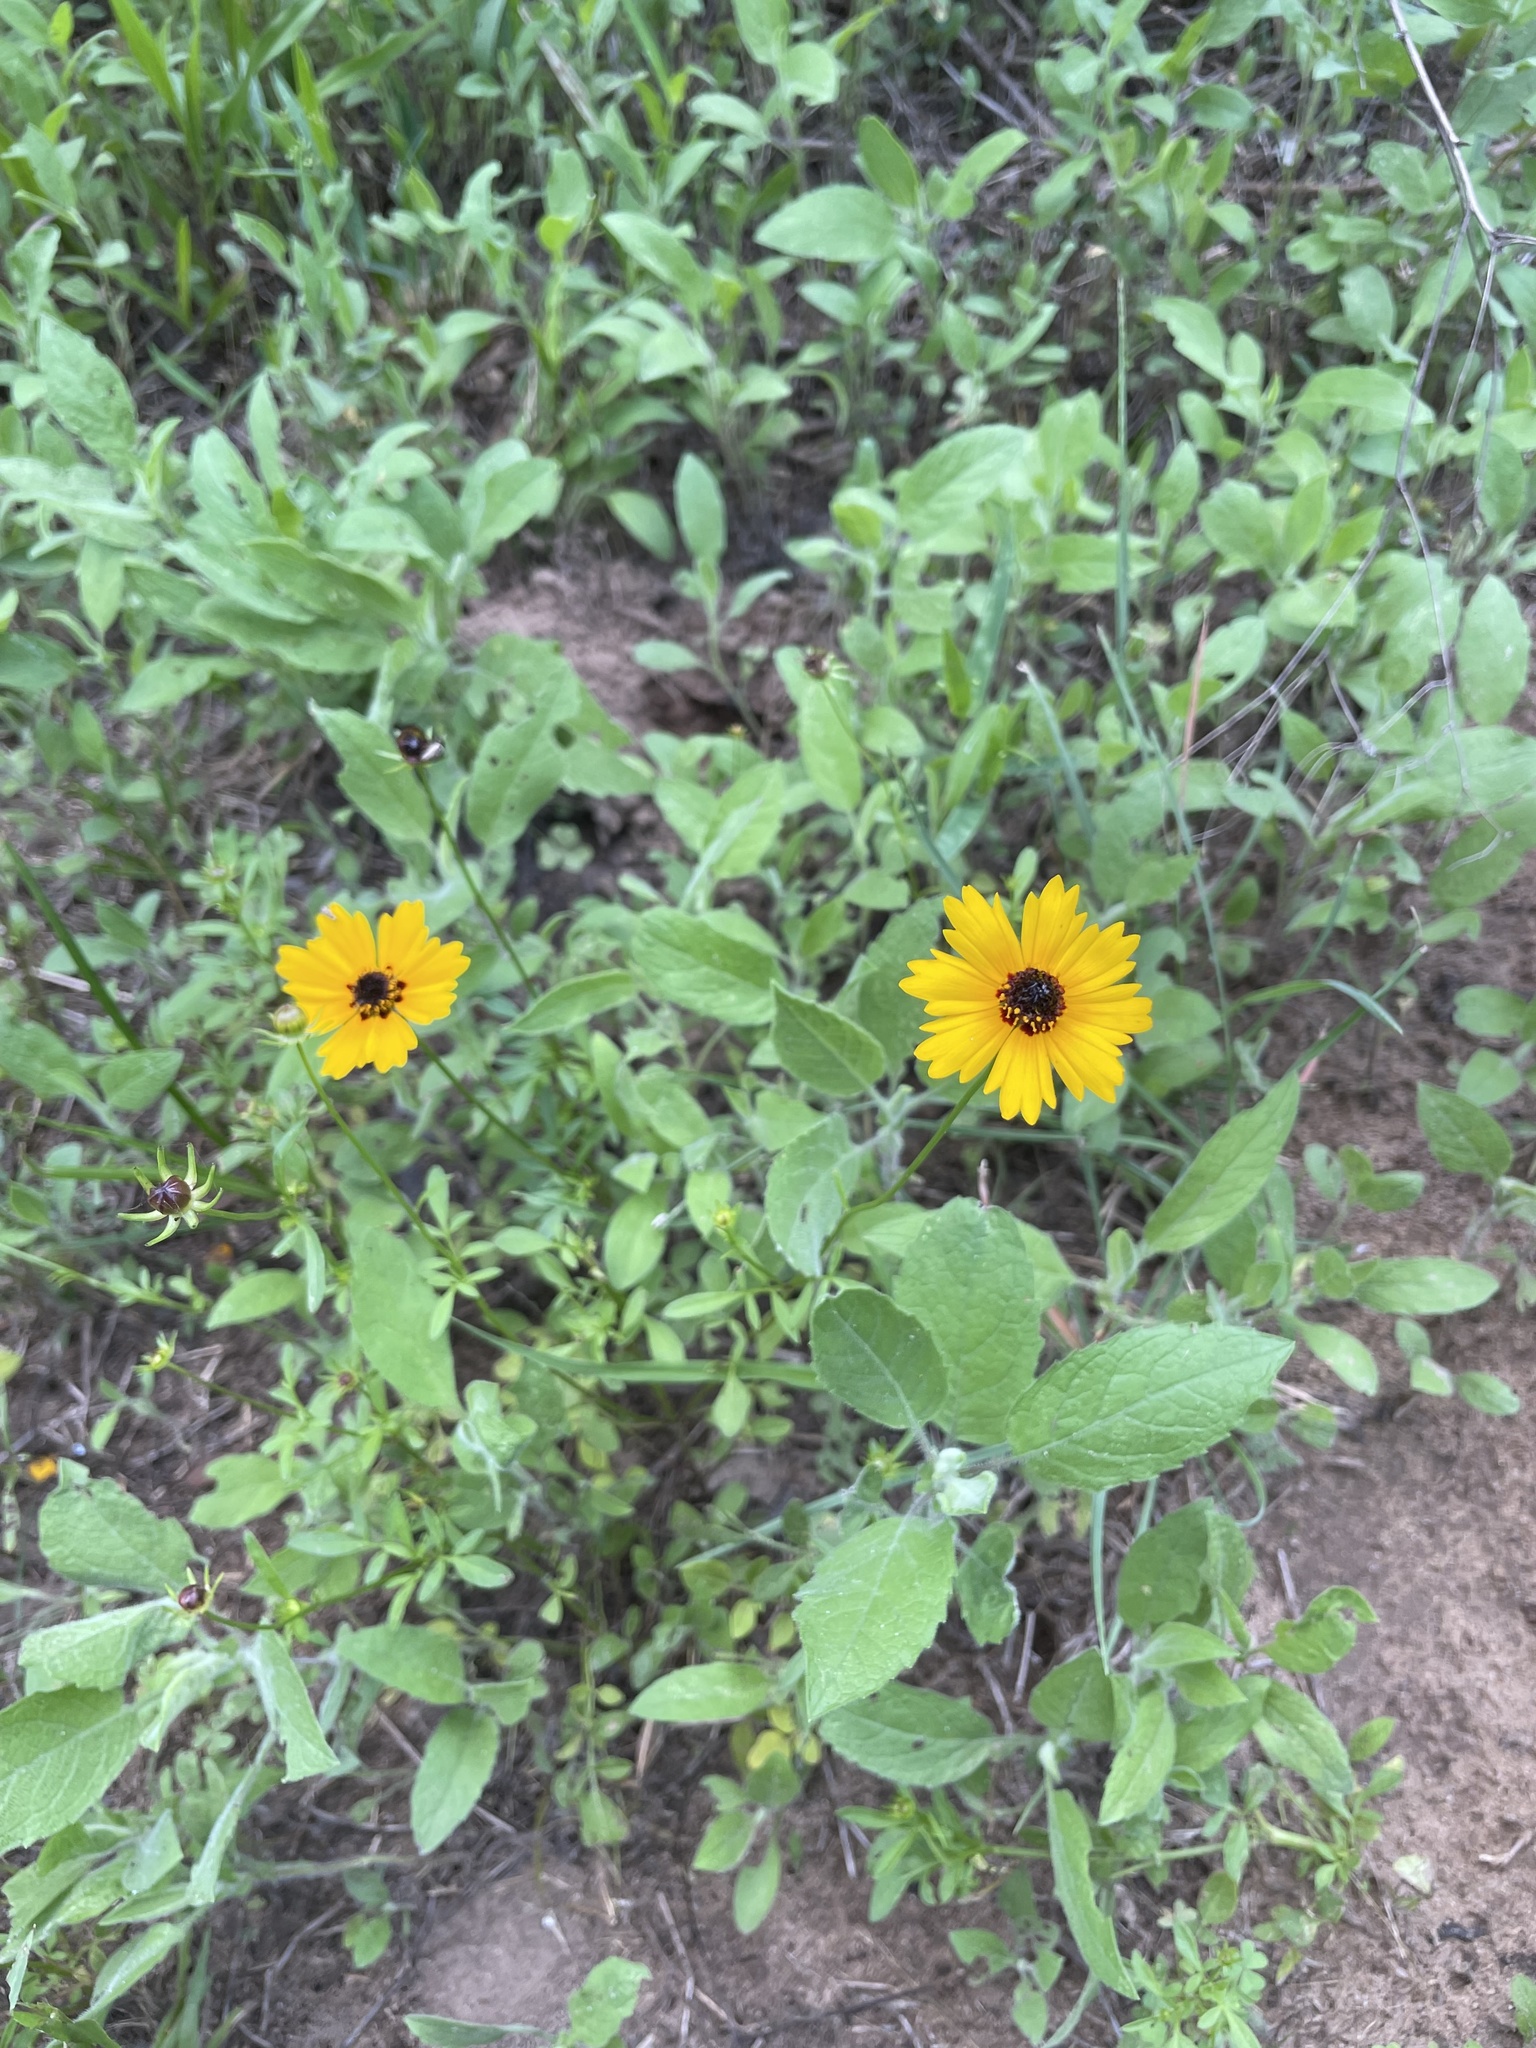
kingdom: Plantae
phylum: Tracheophyta
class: Magnoliopsida
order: Asterales
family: Asteraceae
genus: Coreopsis
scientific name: Coreopsis basalis
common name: Golden-mane coreopsis
